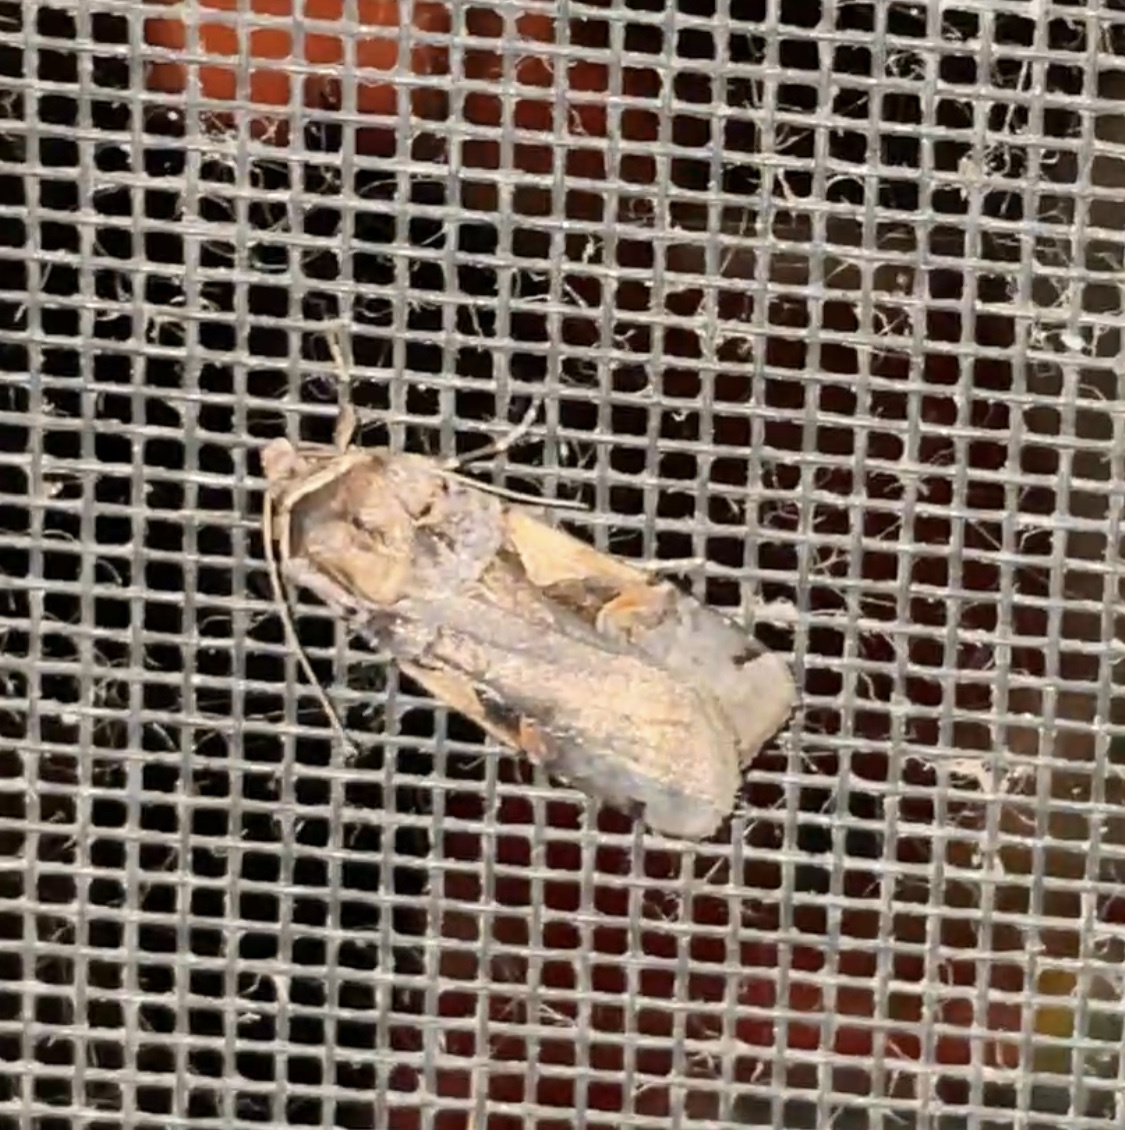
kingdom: Animalia
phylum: Arthropoda
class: Insecta
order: Lepidoptera
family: Noctuidae
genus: Xestia
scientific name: Xestia
